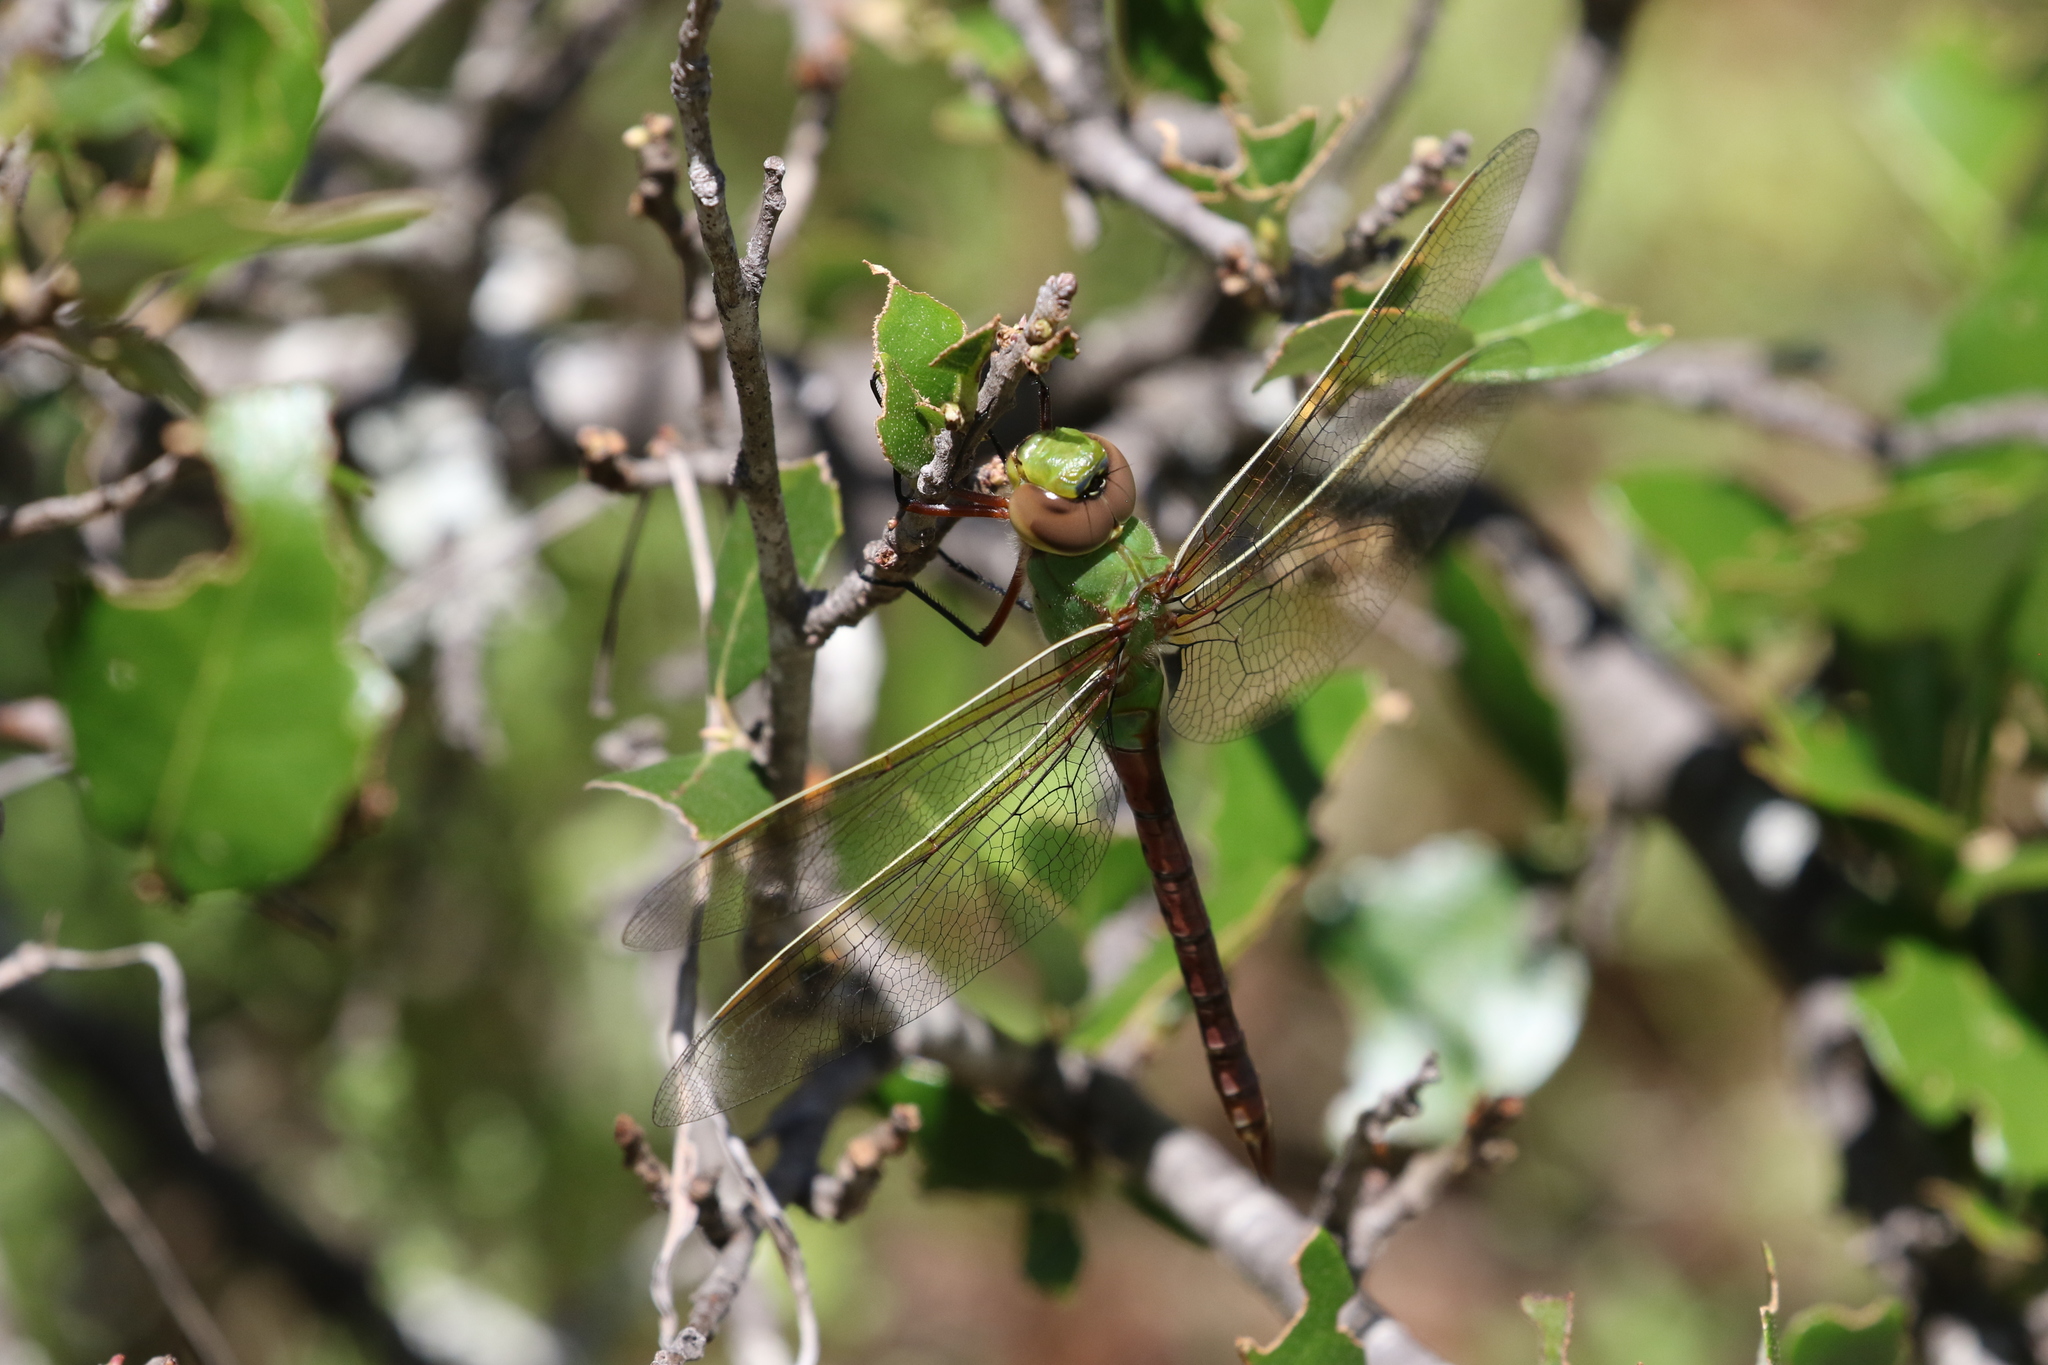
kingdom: Animalia
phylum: Arthropoda
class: Insecta
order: Odonata
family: Aeshnidae
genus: Anax
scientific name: Anax junius
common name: Common green darner
